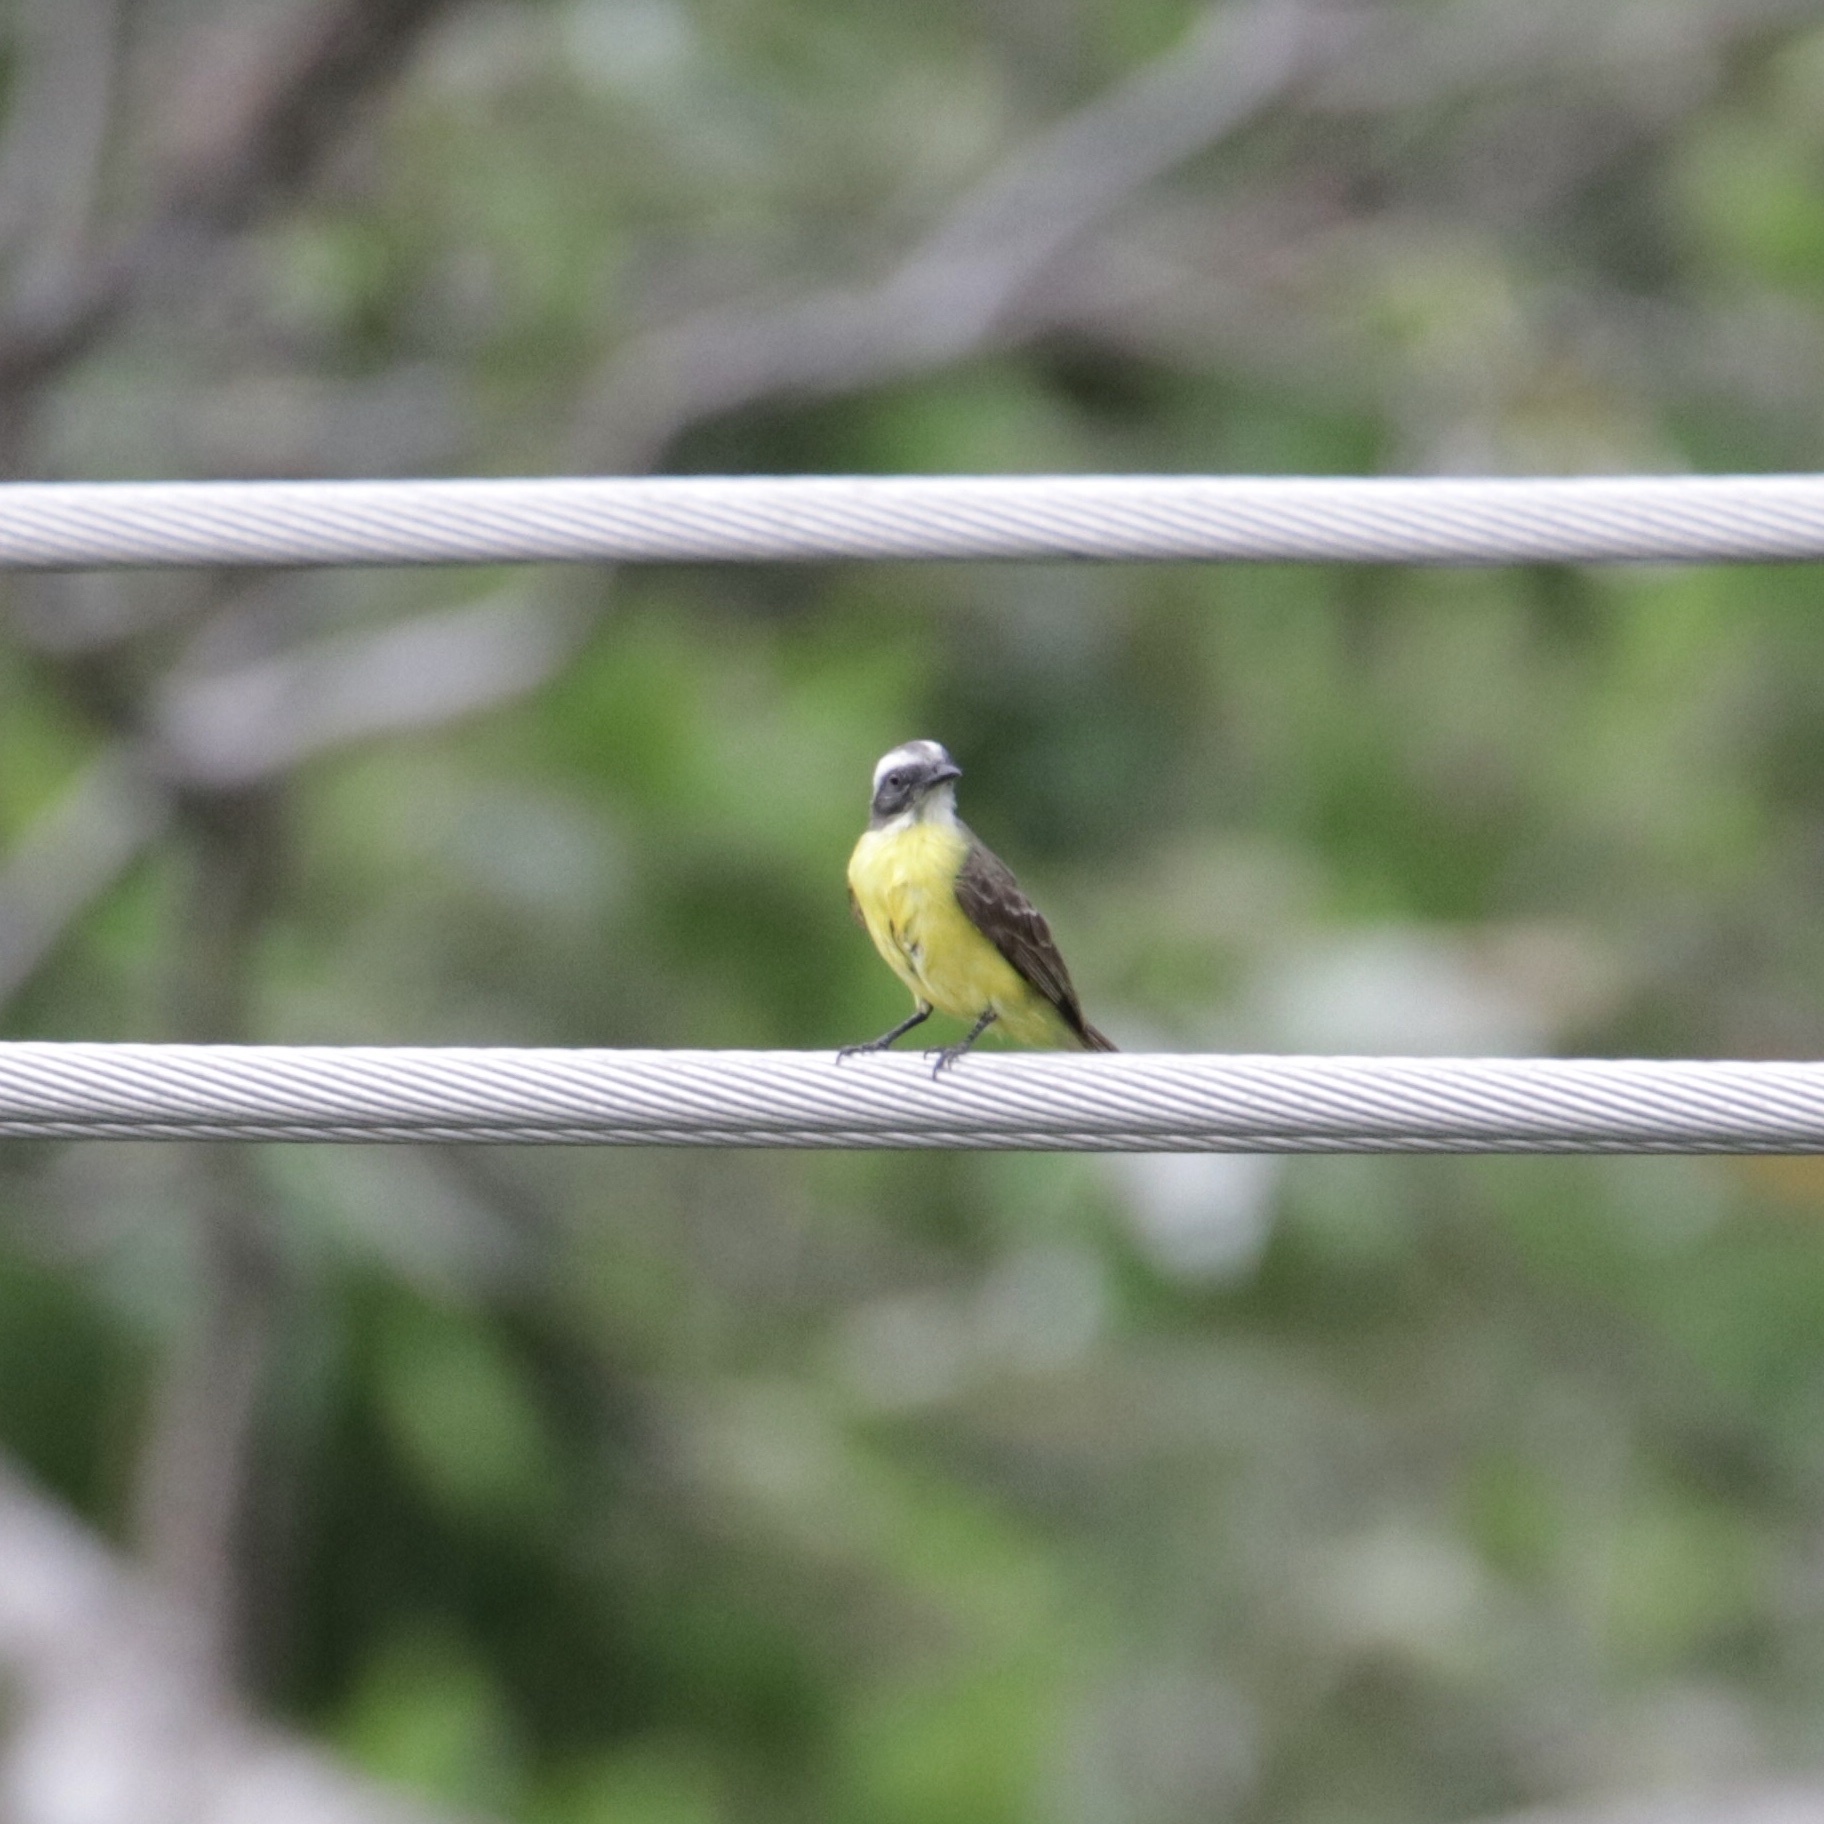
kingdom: Animalia
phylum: Chordata
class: Aves
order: Passeriformes
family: Tyrannidae
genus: Myiozetetes
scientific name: Myiozetetes similis
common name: Social flycatcher
